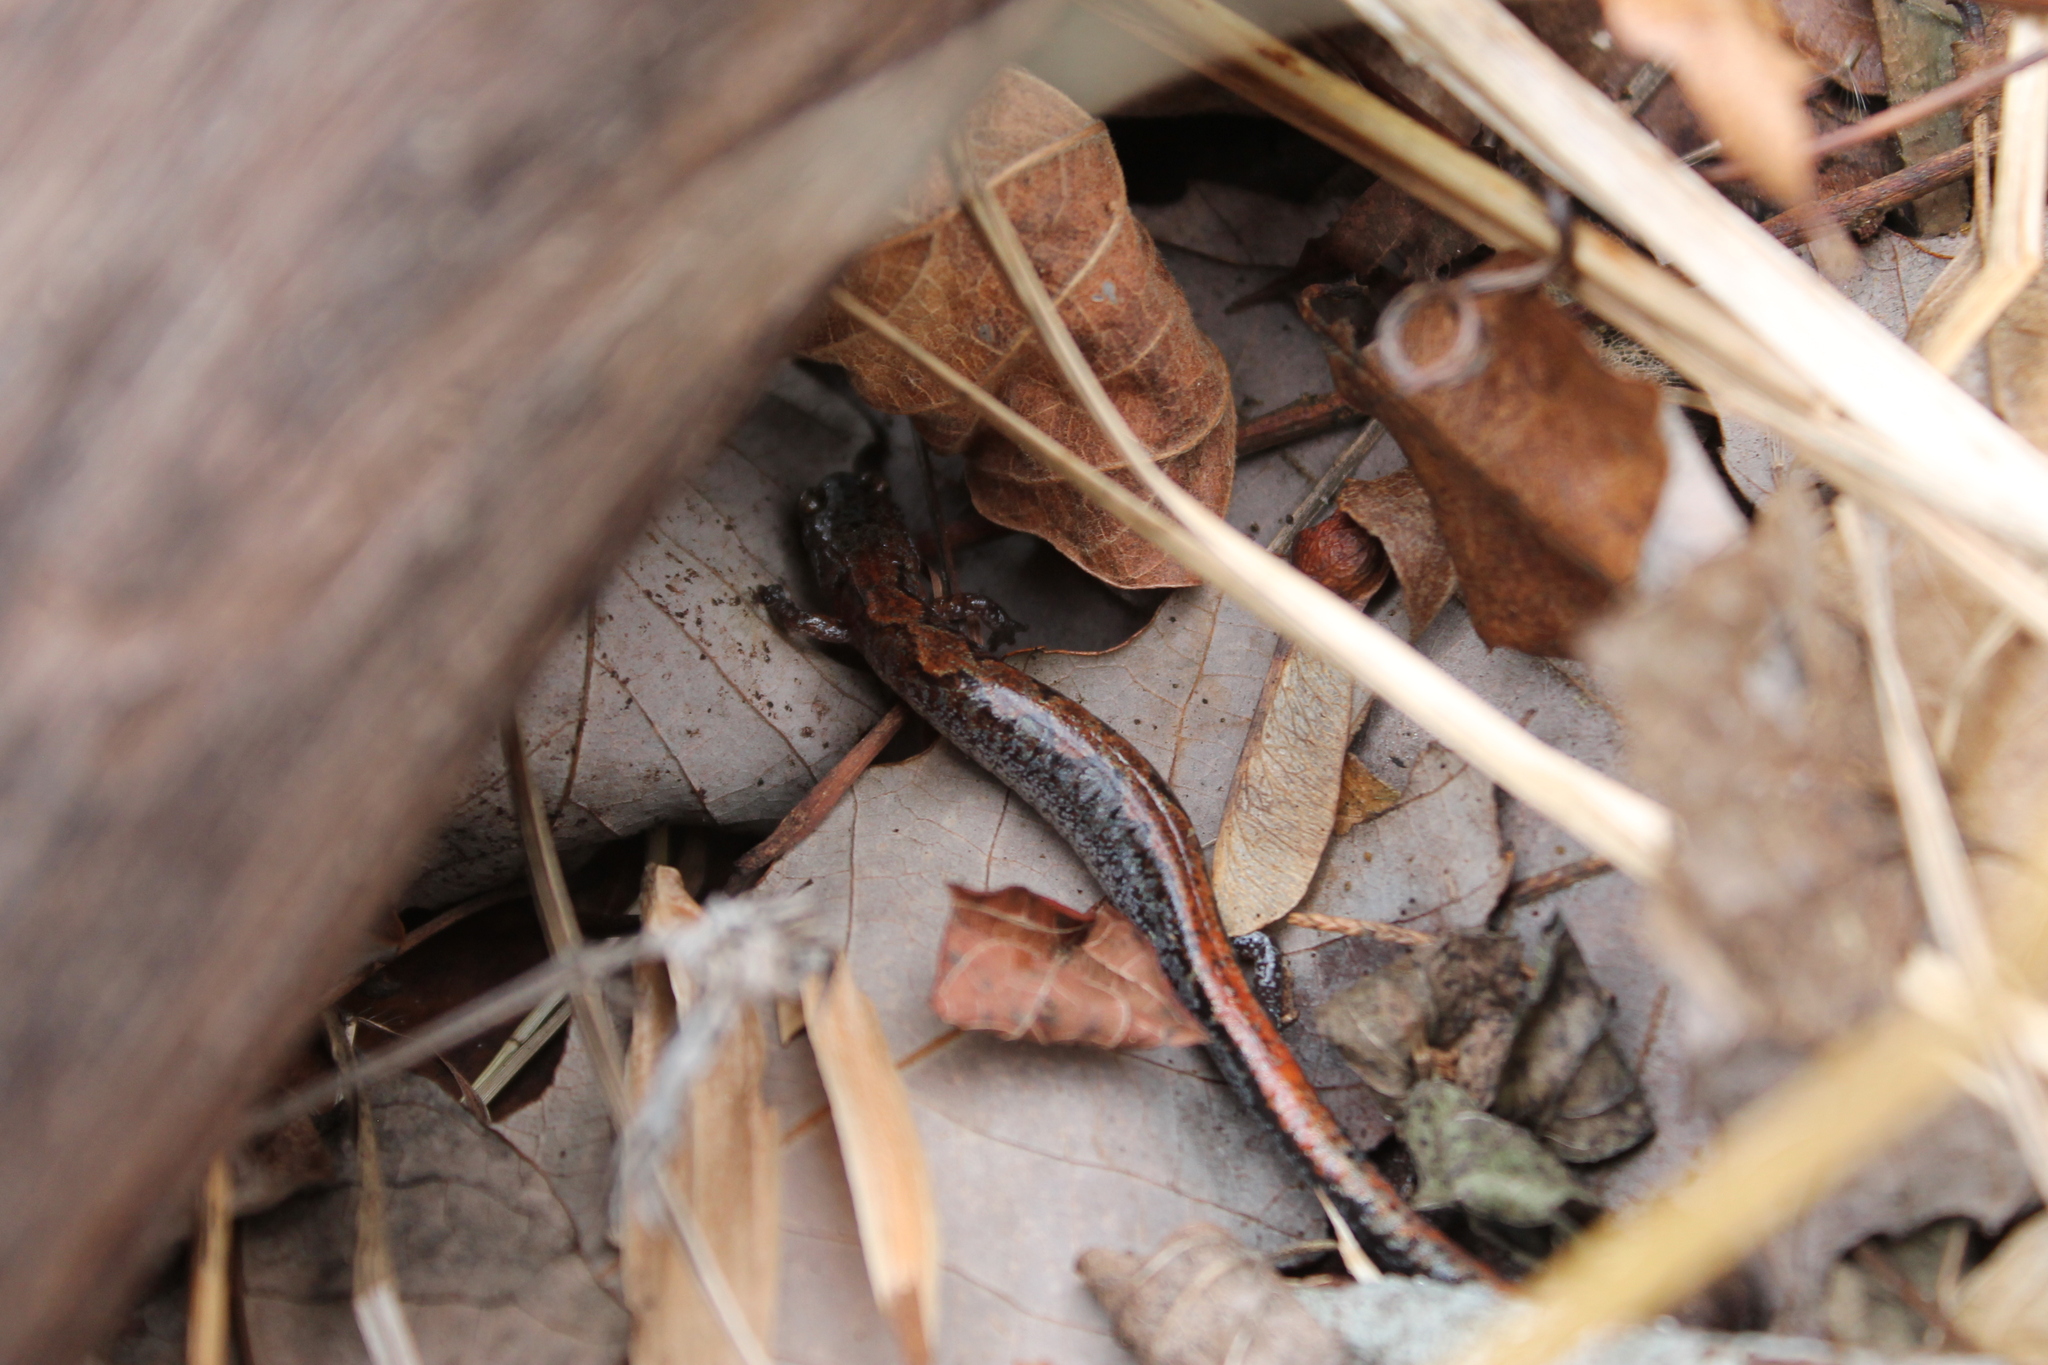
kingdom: Animalia
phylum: Chordata
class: Amphibia
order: Caudata
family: Plethodontidae
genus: Plethodon
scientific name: Plethodon dorsalis
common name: Northern zigzag salamander
